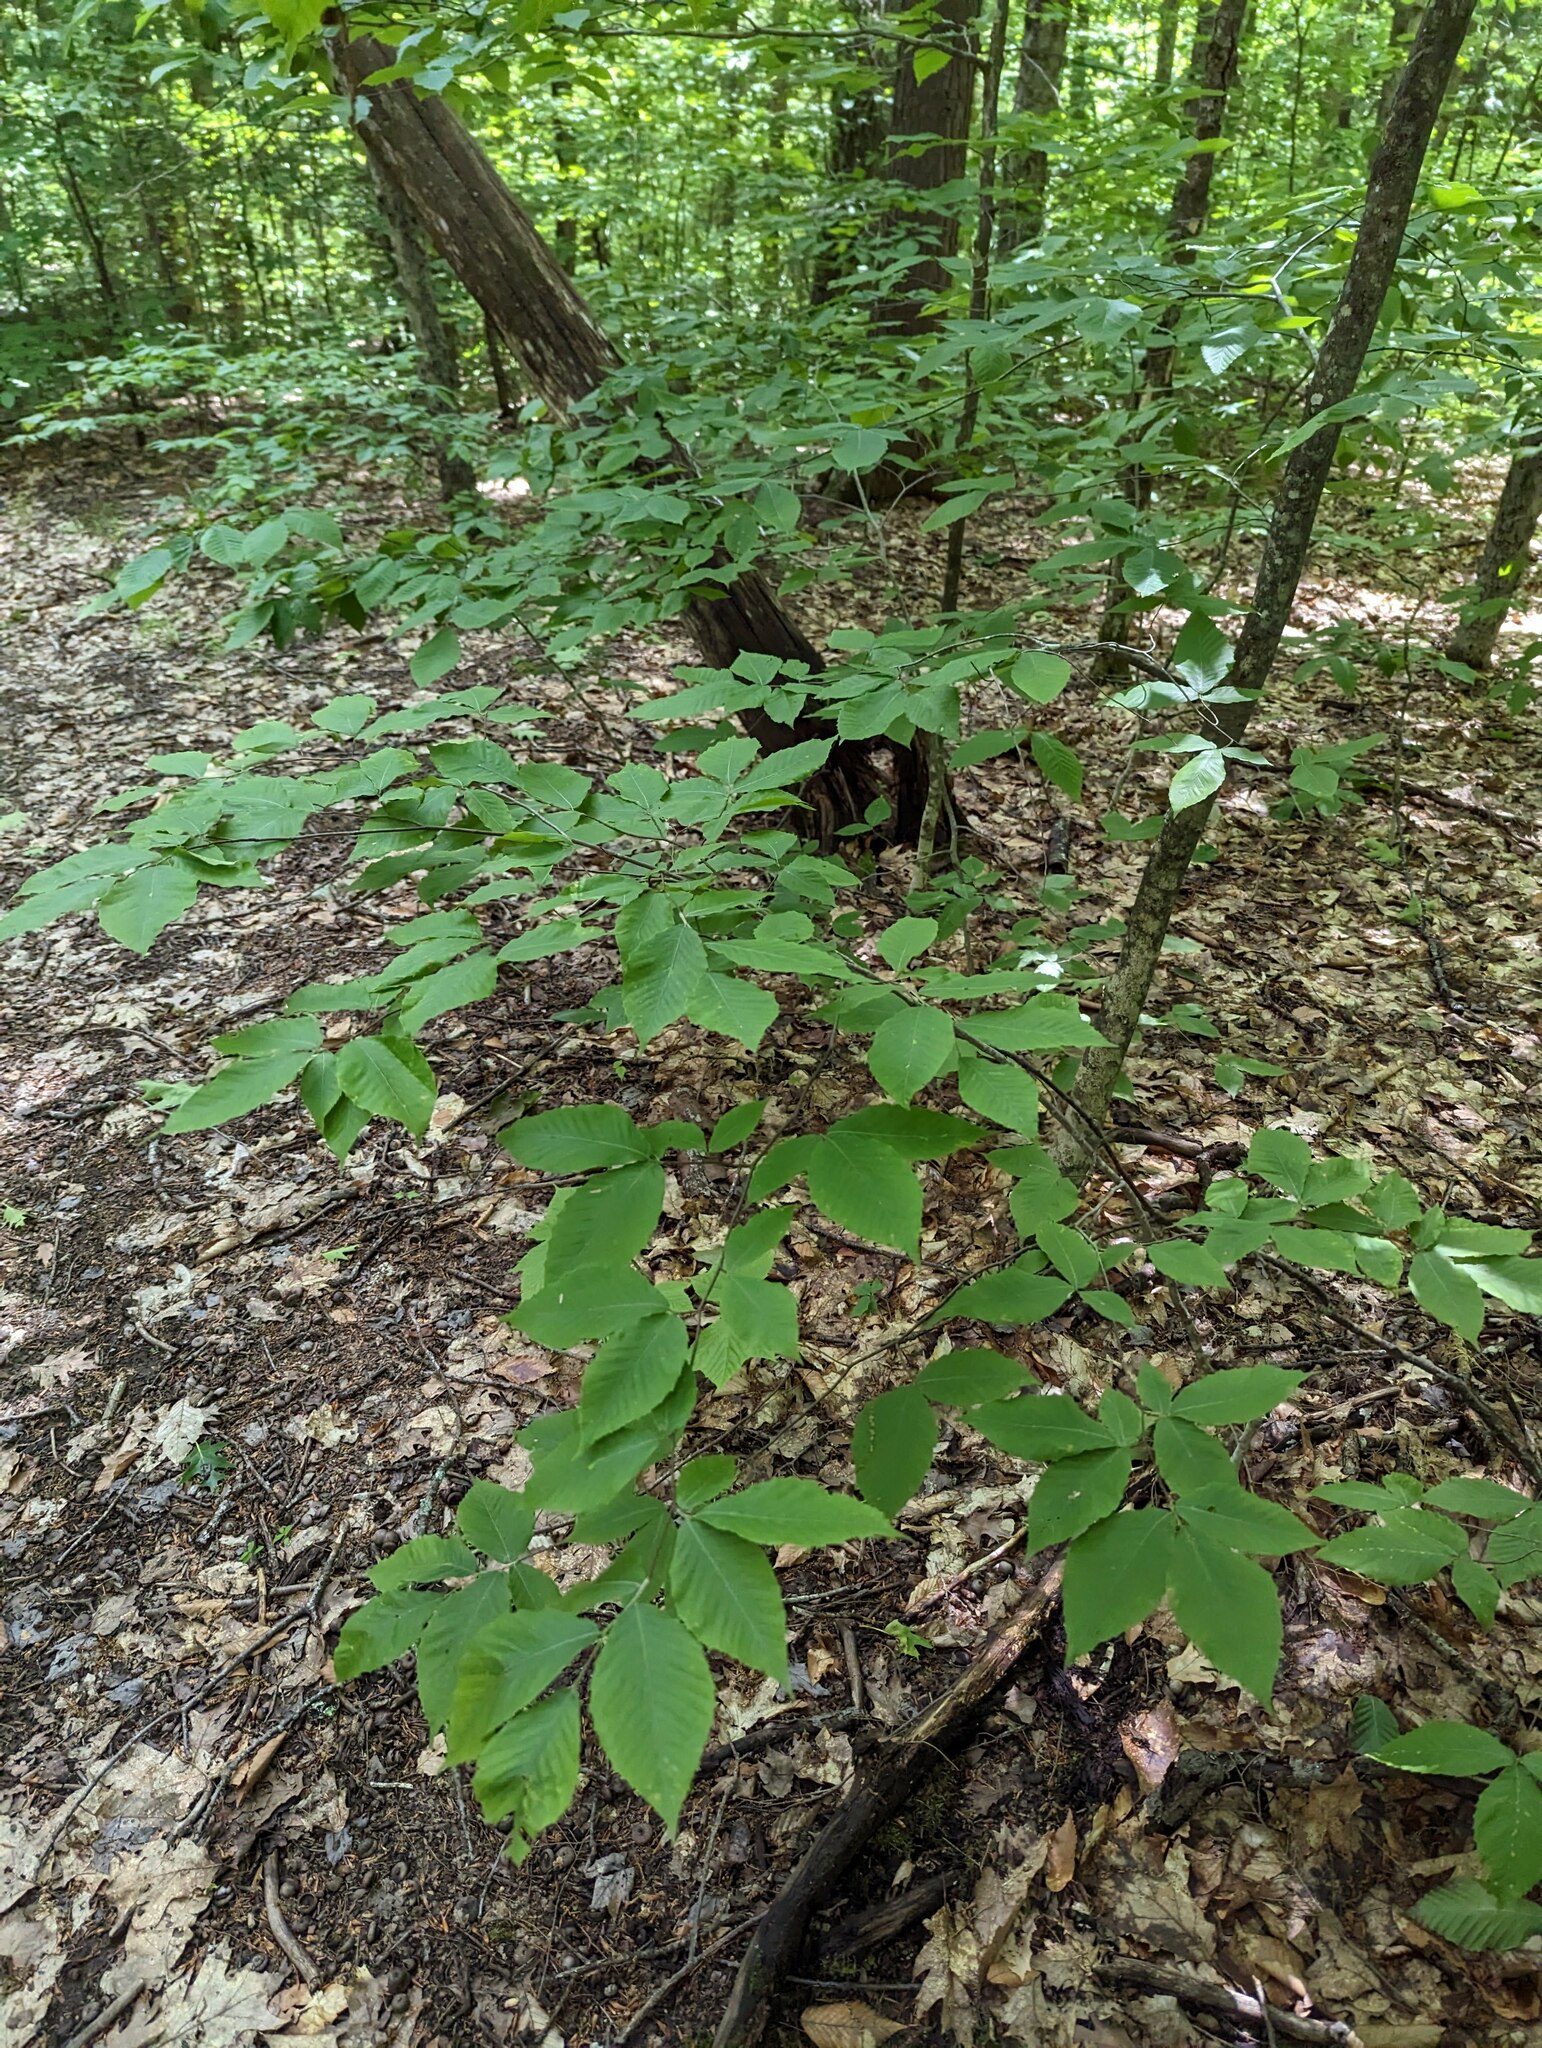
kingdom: Plantae
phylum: Tracheophyta
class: Magnoliopsida
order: Fagales
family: Fagaceae
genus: Fagus
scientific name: Fagus grandifolia
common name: American beech
